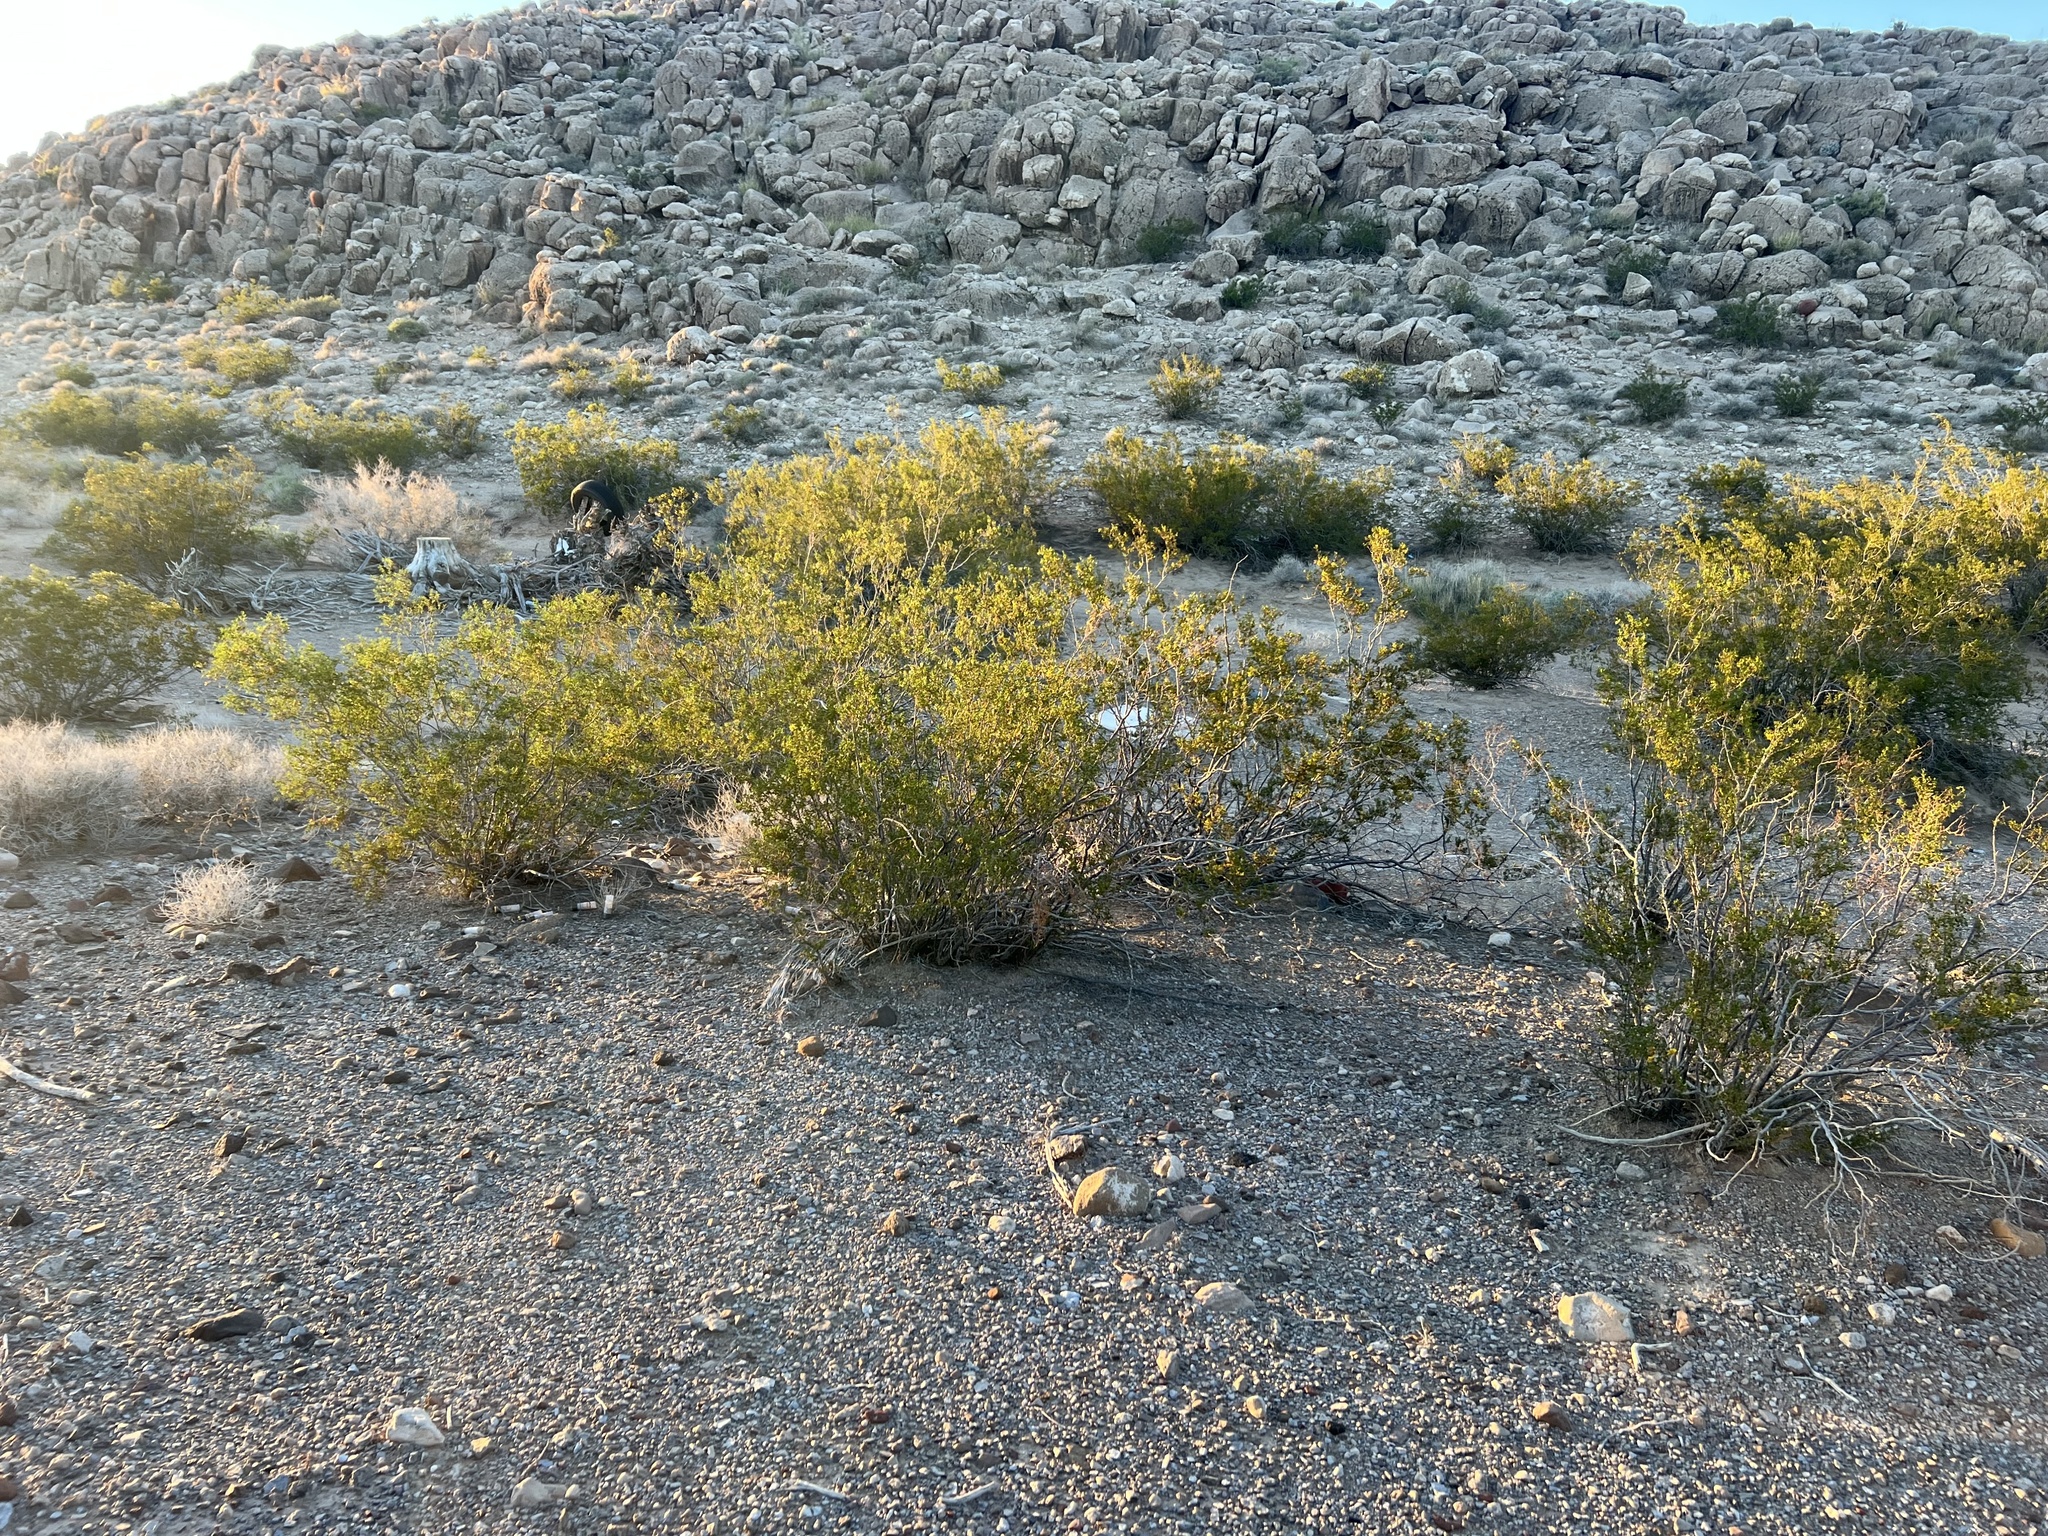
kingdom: Plantae
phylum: Tracheophyta
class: Magnoliopsida
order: Zygophyllales
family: Zygophyllaceae
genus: Larrea
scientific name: Larrea tridentata
